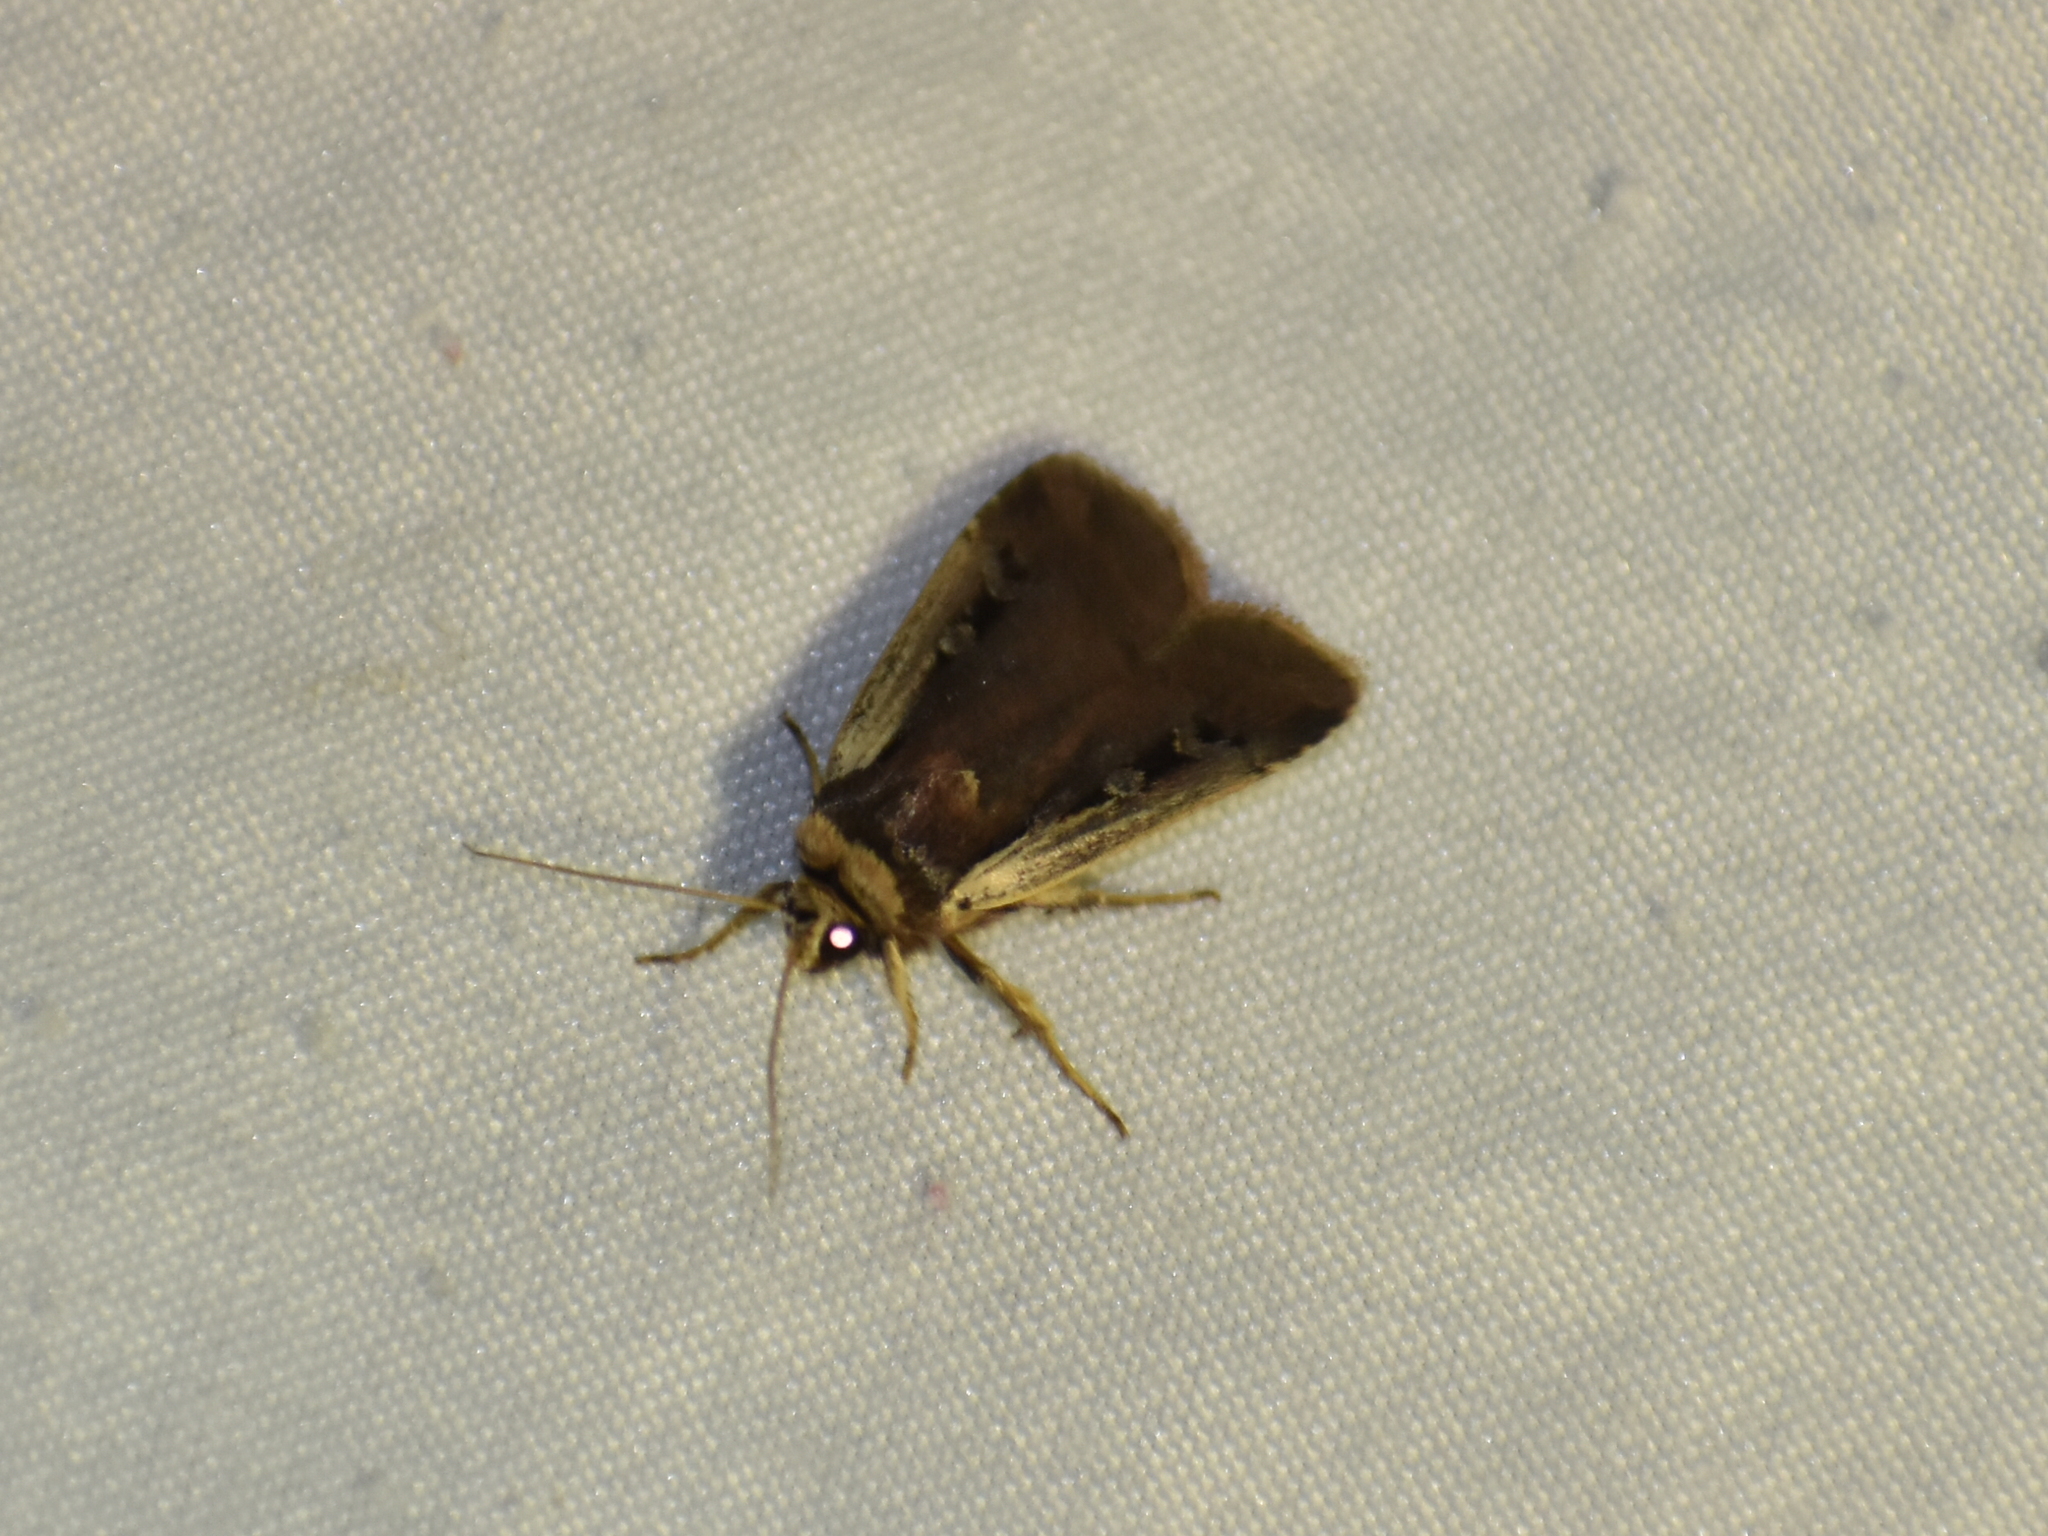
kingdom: Animalia
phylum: Arthropoda
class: Insecta
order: Lepidoptera
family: Noctuidae
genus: Ochropleura
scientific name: Ochropleura implecta
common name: Flame-shouldered dart
